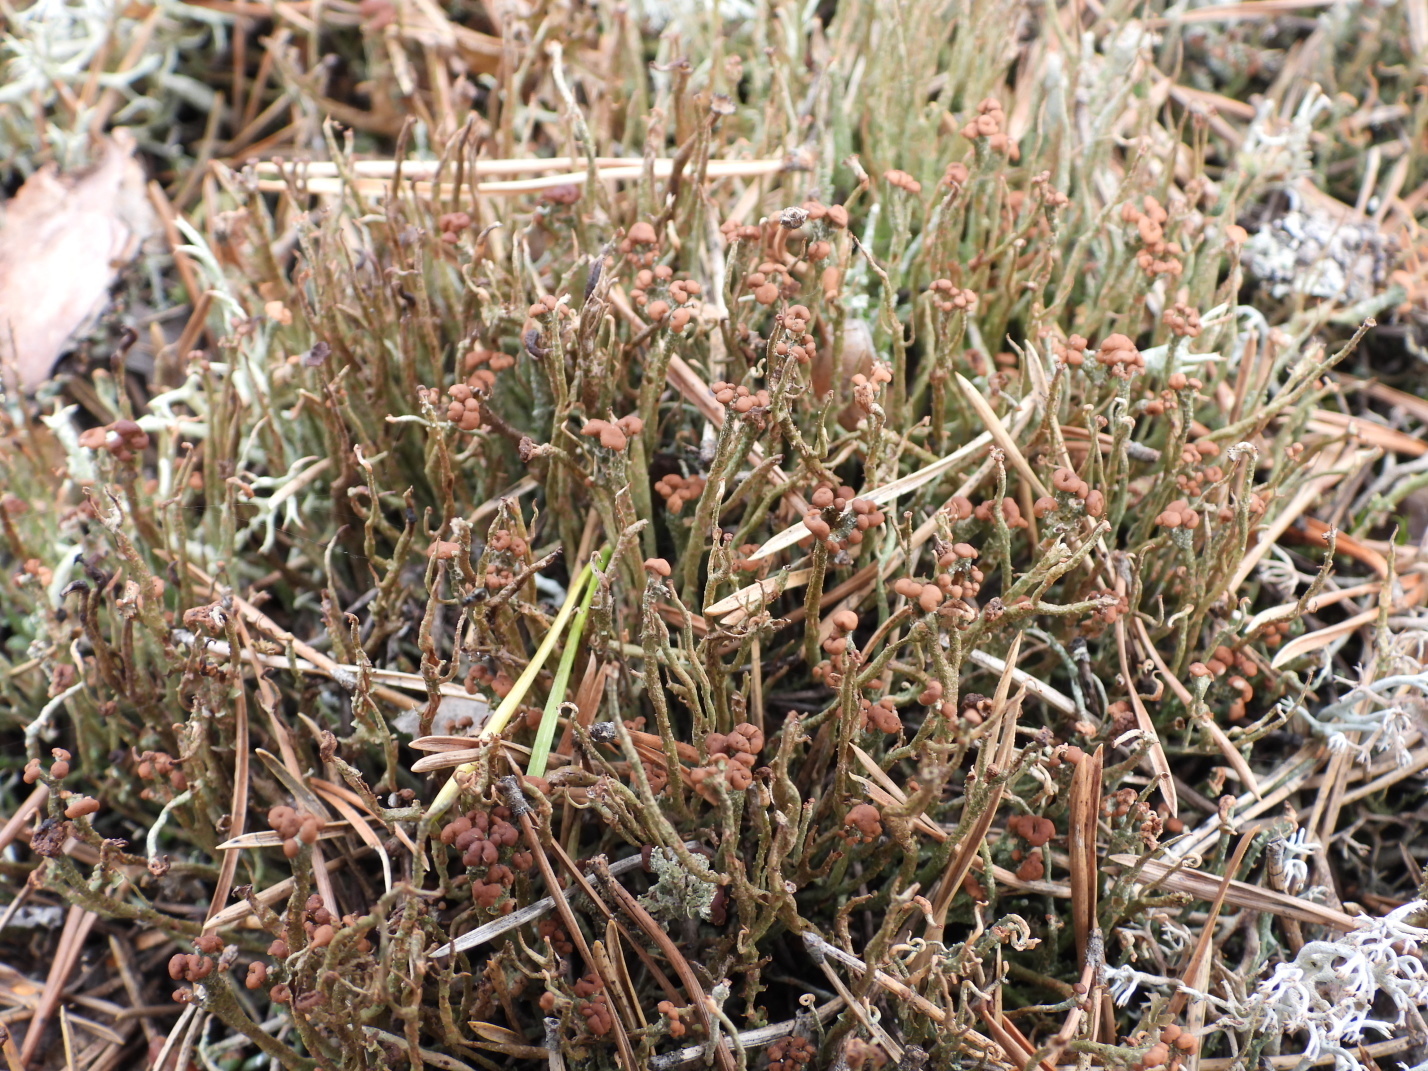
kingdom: Fungi
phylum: Ascomycota
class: Lecanoromycetes
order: Lecanorales
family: Cladoniaceae
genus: Cladonia
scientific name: Cladonia gracilis
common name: Smooth clad lichen
